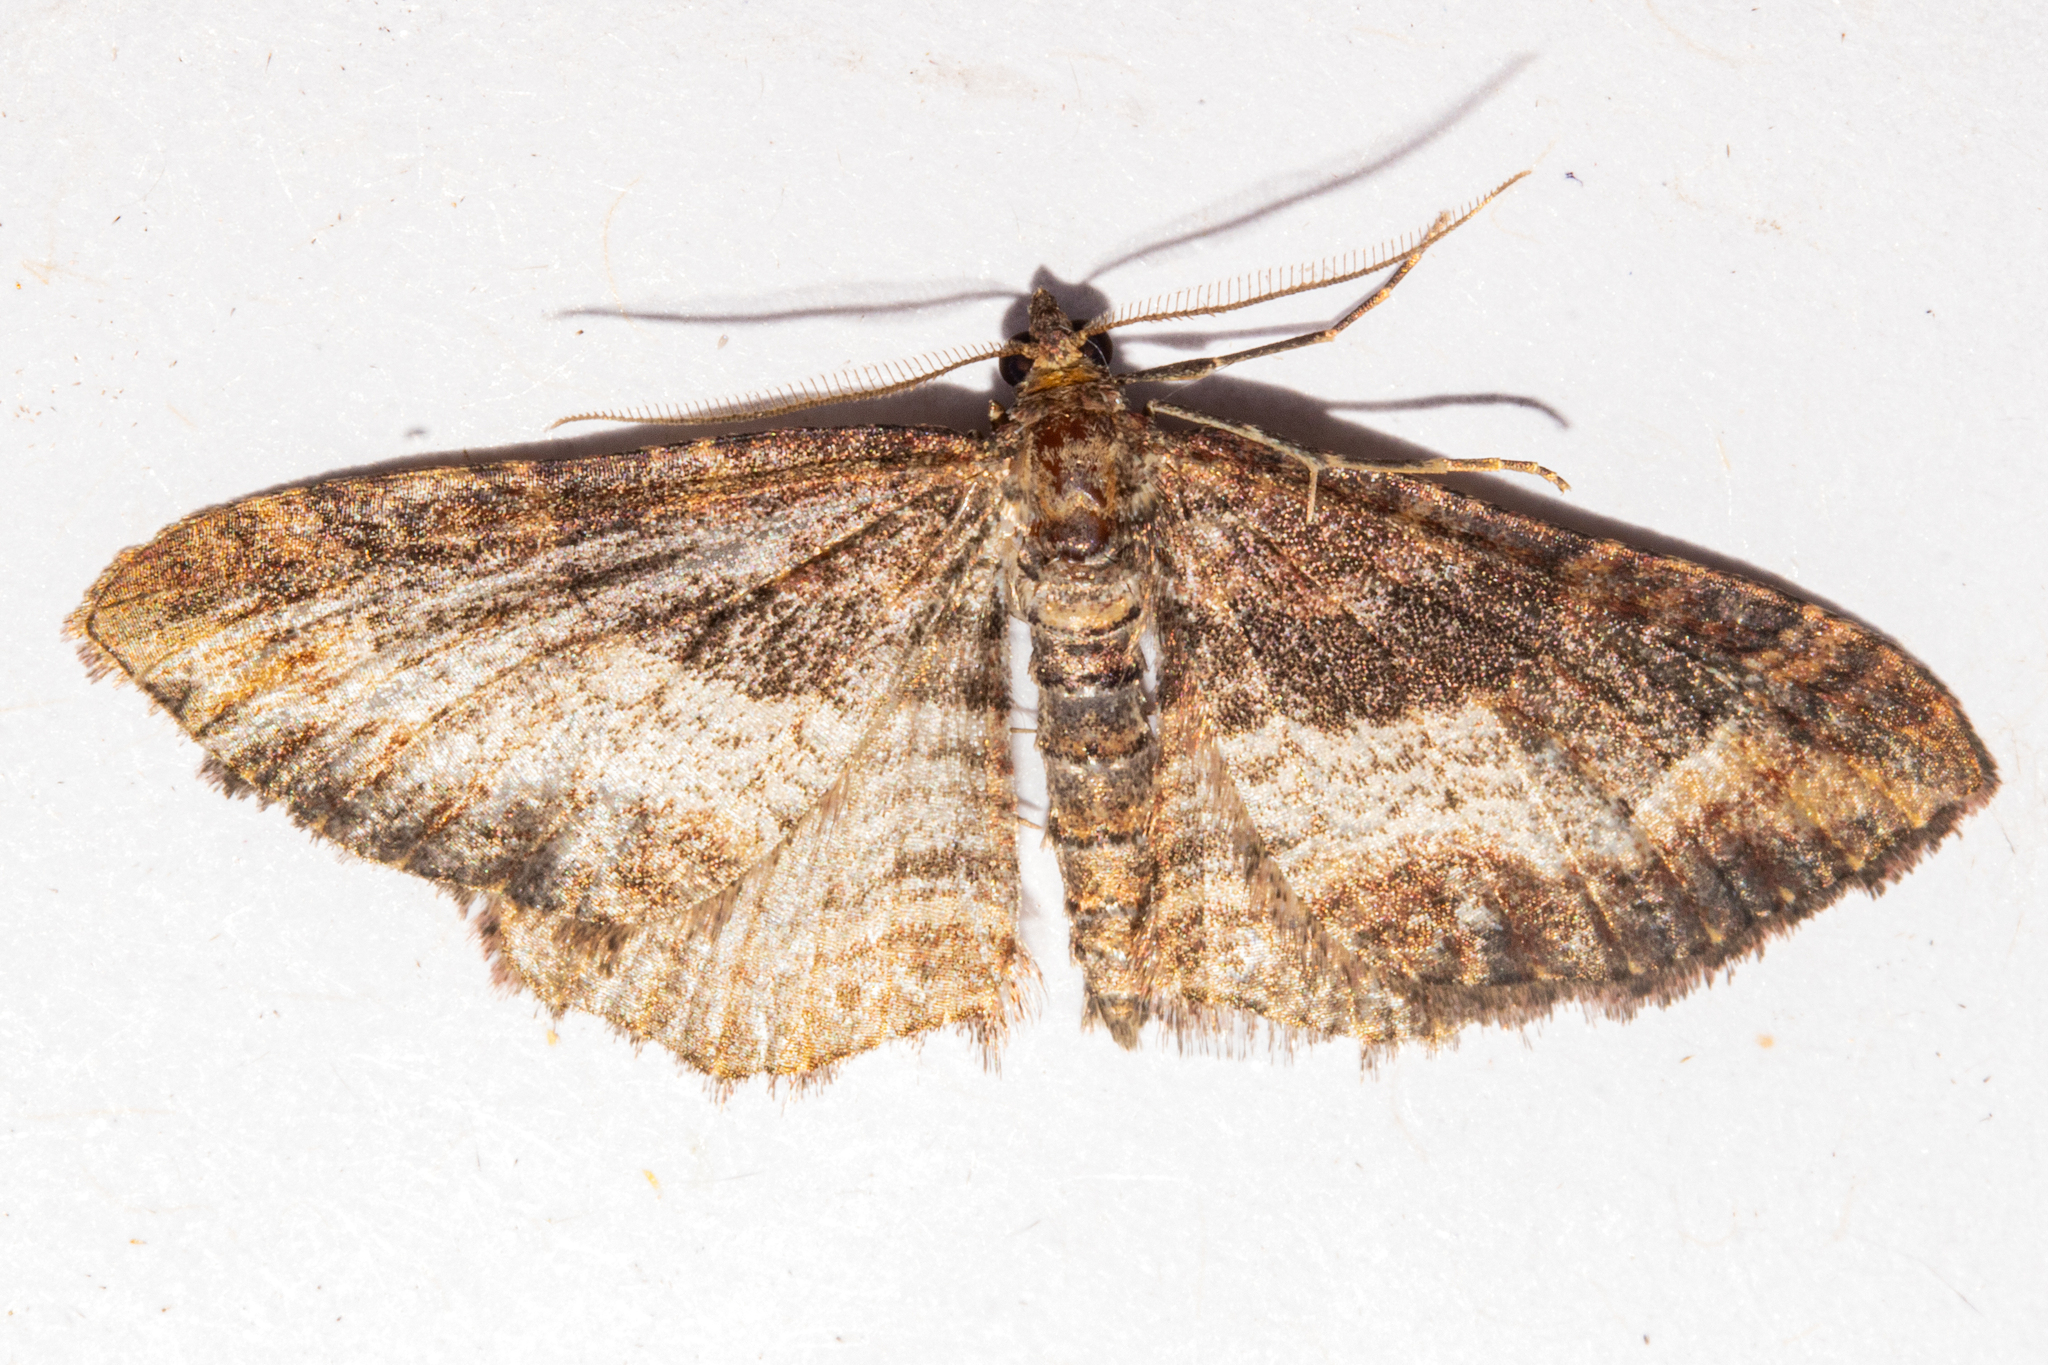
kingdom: Animalia
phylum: Arthropoda
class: Insecta
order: Lepidoptera
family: Geometridae
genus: Horisme
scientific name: Horisme suppressaria
